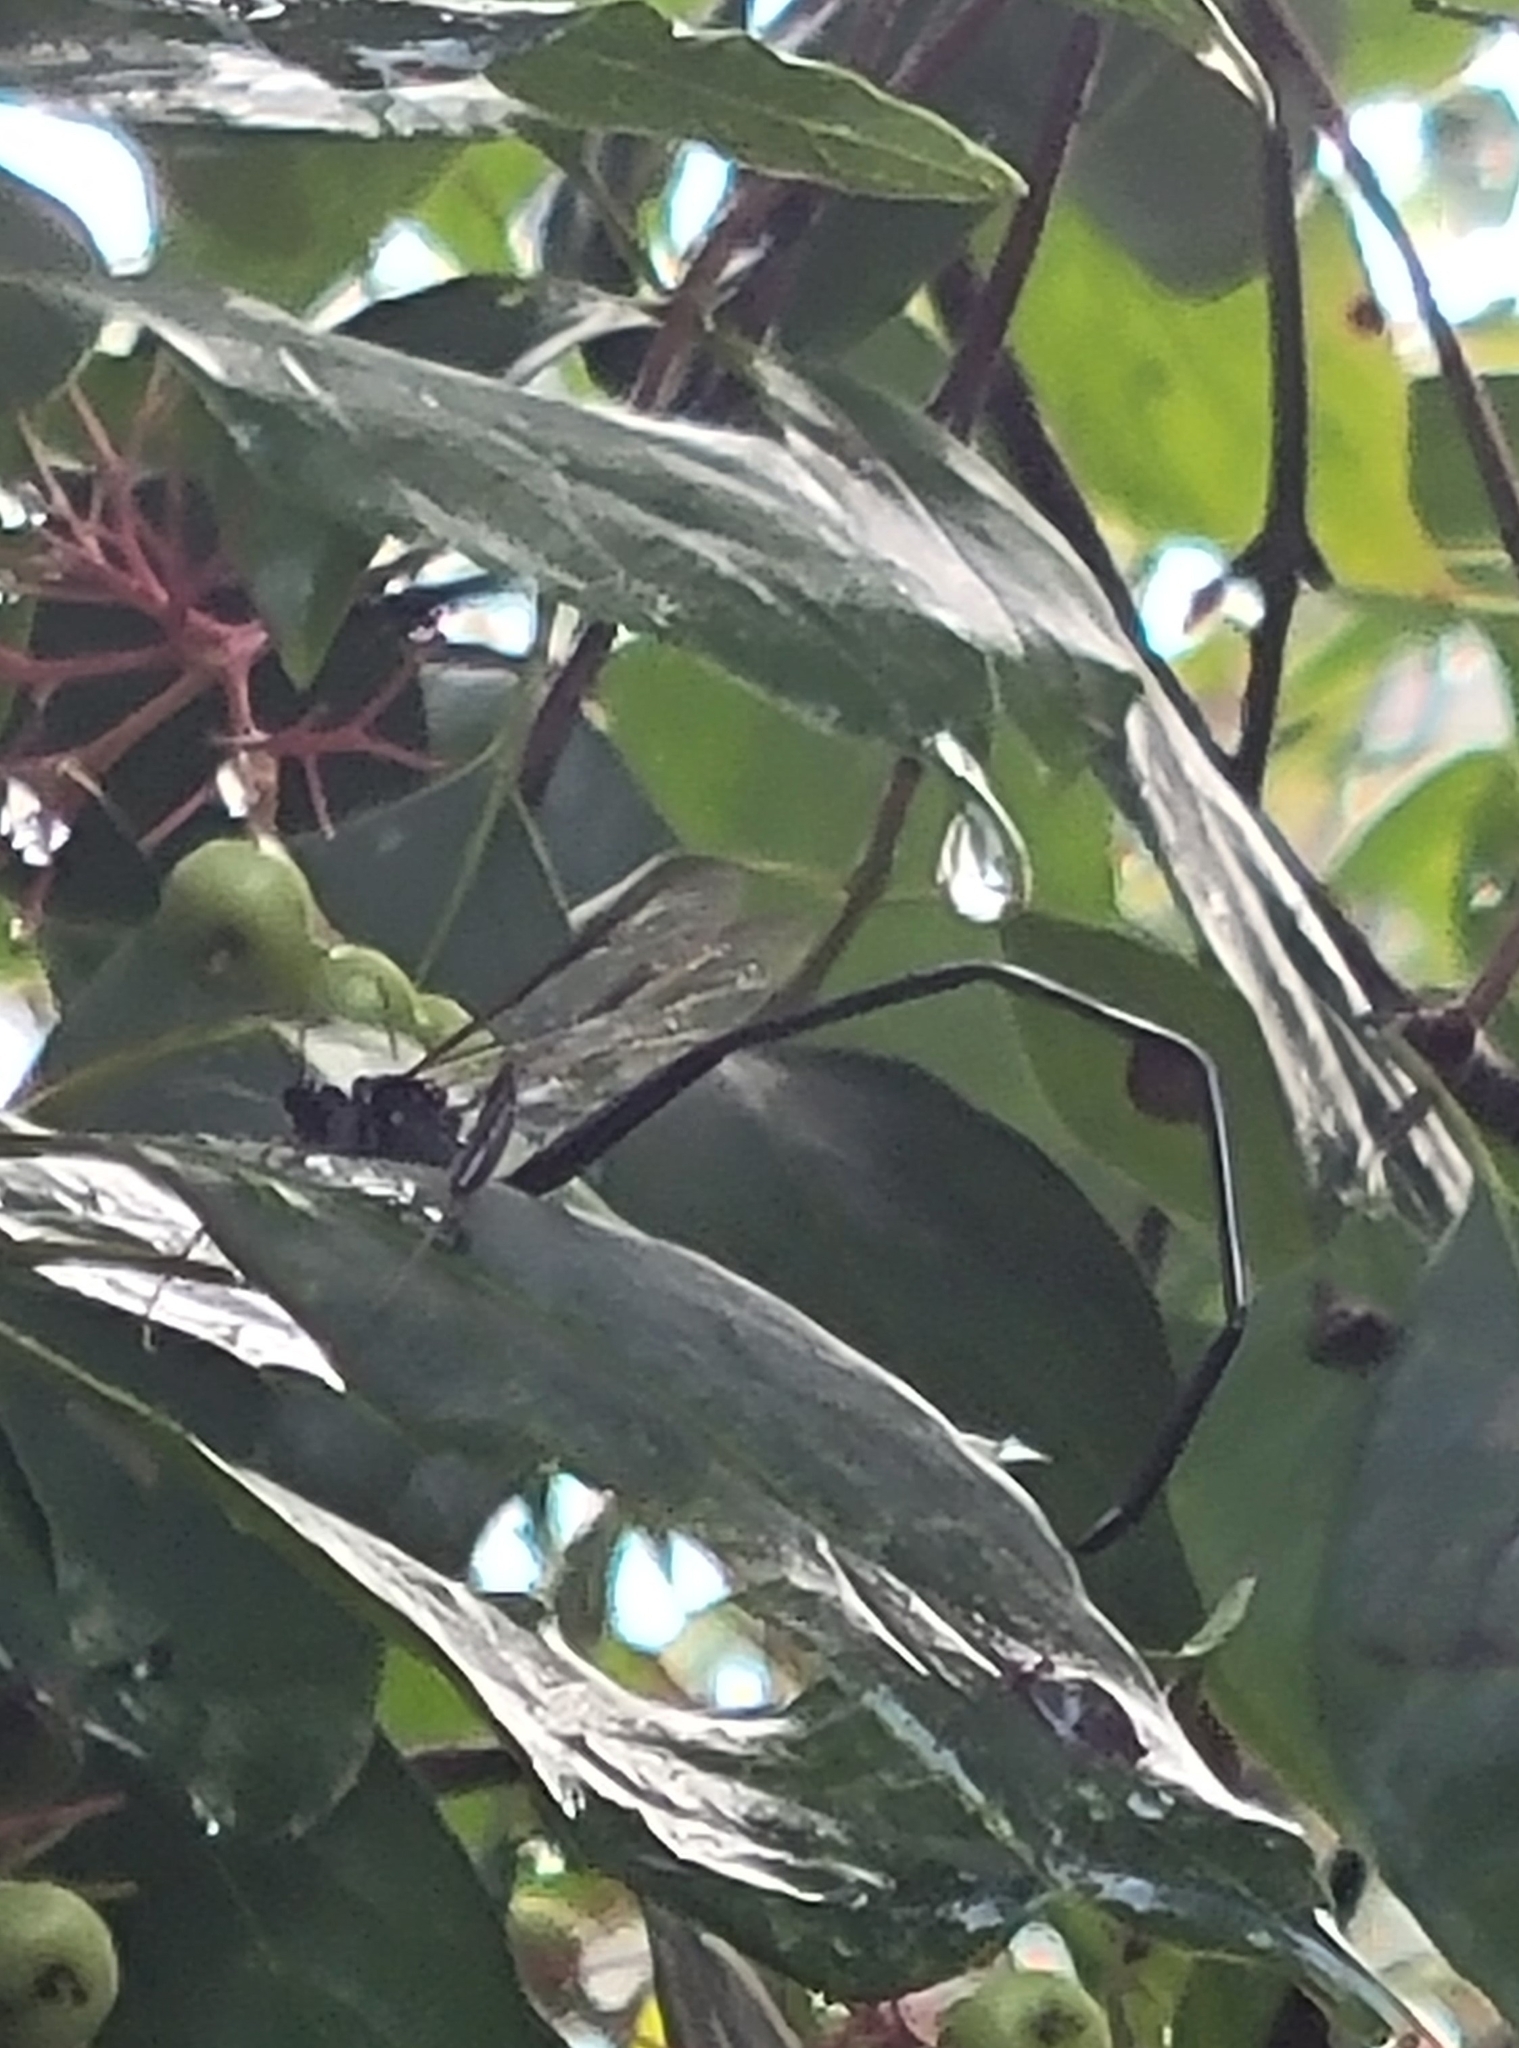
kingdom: Animalia
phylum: Arthropoda
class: Insecta
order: Hymenoptera
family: Pelecinidae
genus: Pelecinus
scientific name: Pelecinus polyturator
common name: American pelecinid wasp
